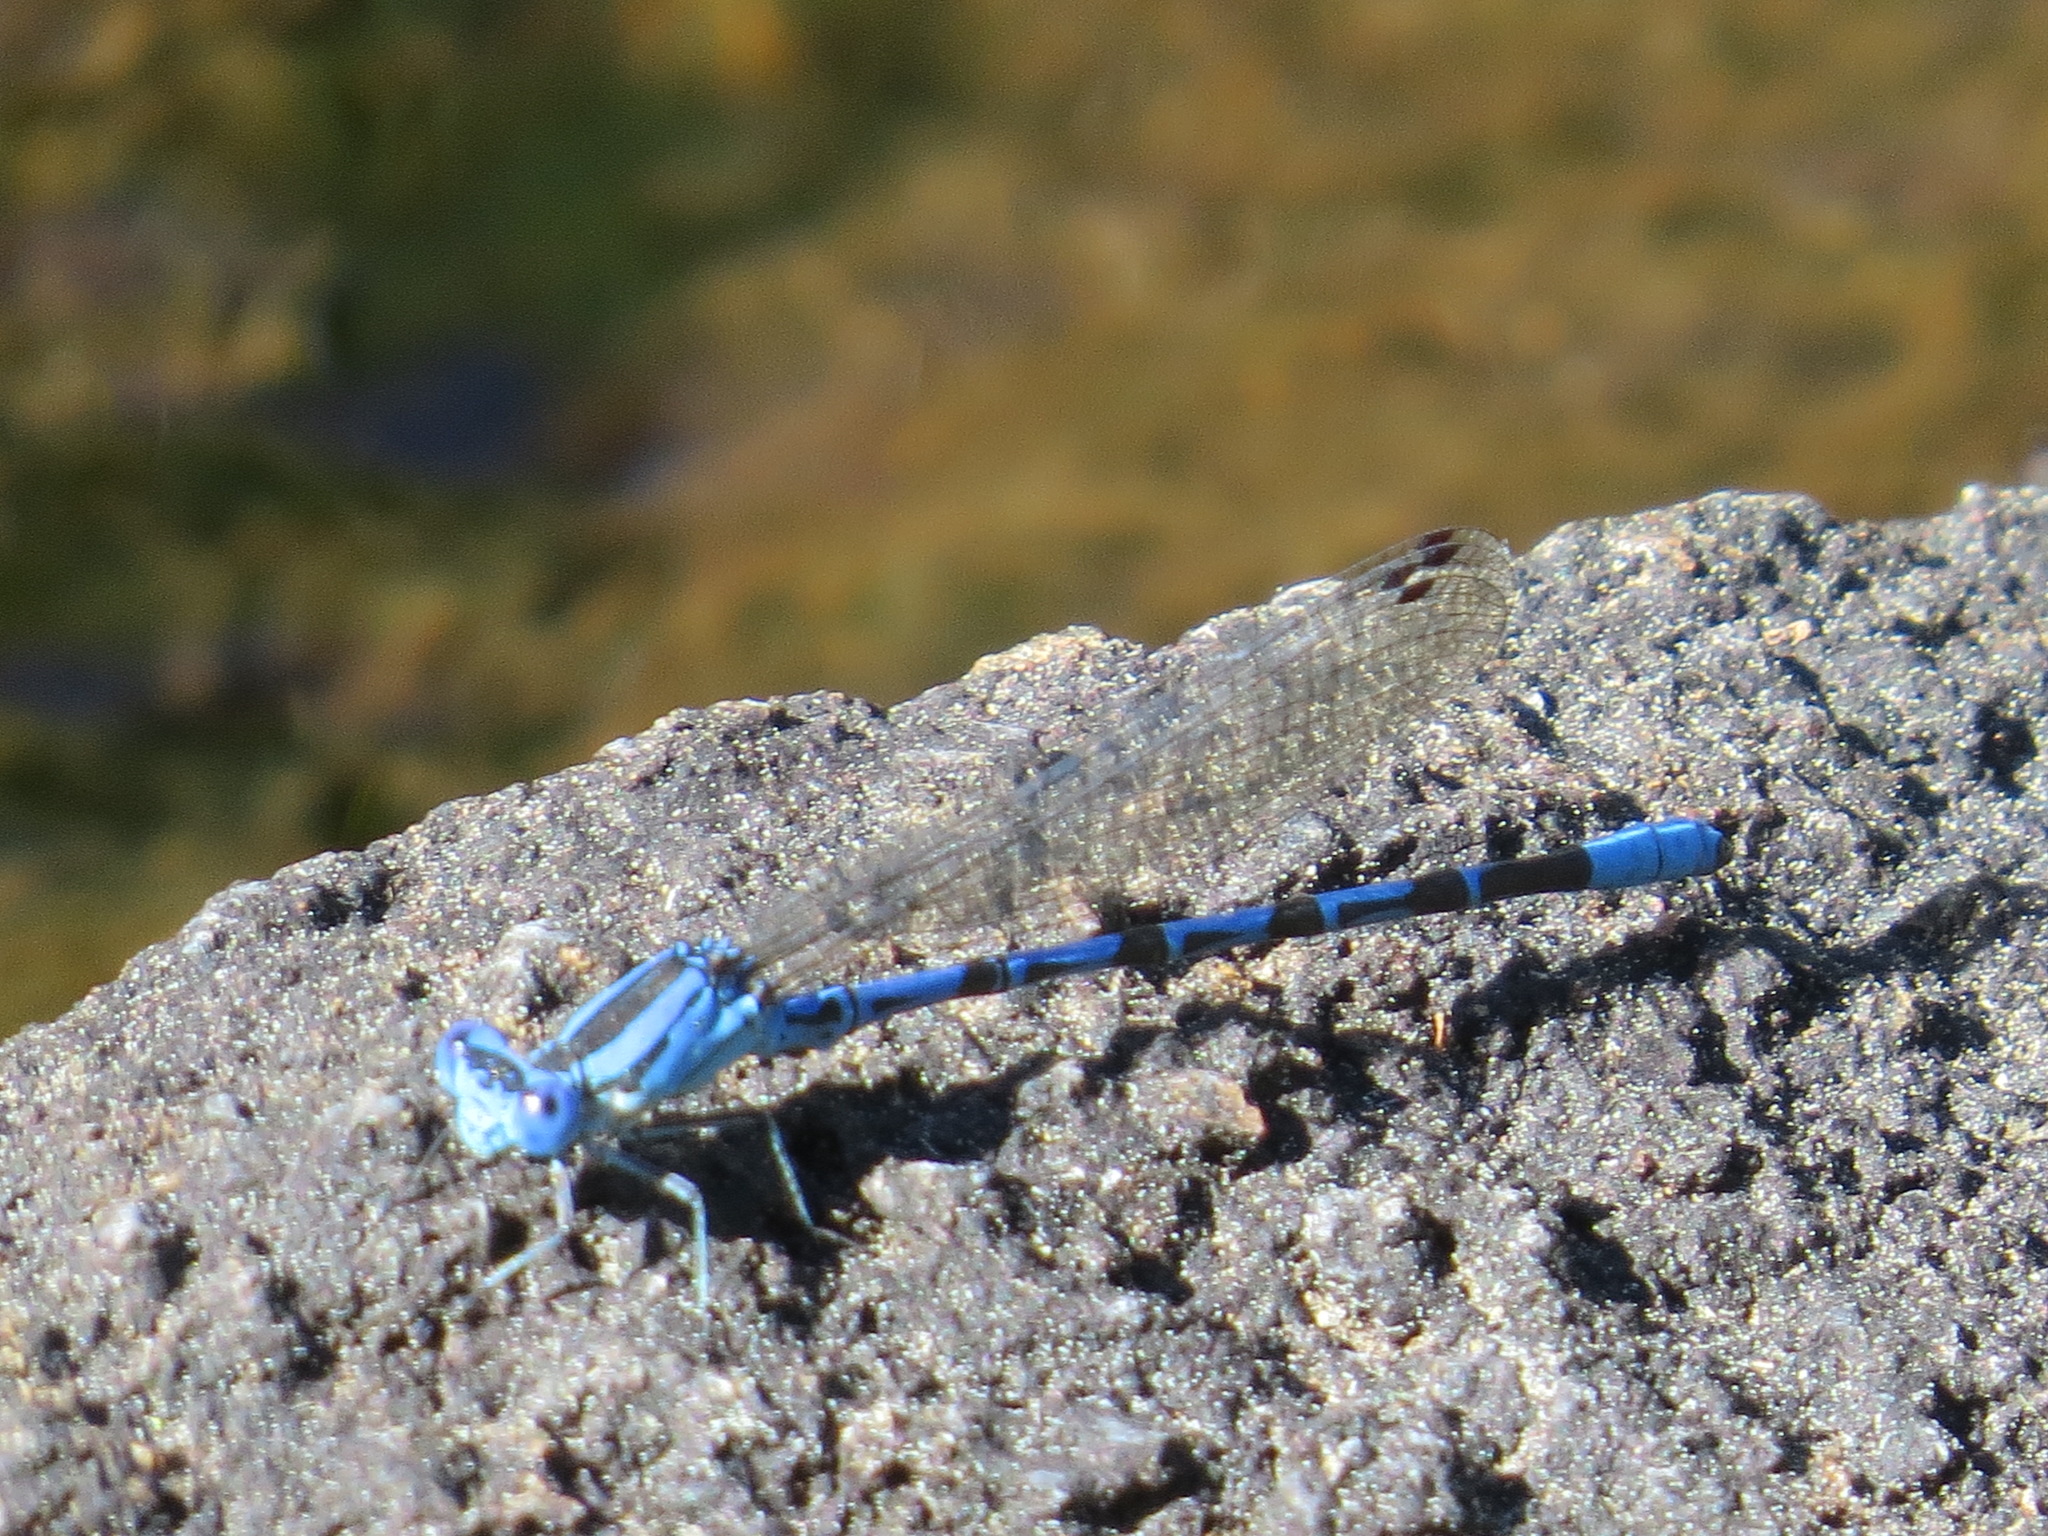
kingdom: Animalia
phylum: Arthropoda
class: Insecta
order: Odonata
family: Coenagrionidae
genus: Argia
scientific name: Argia vivida
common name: Vivid dancer
